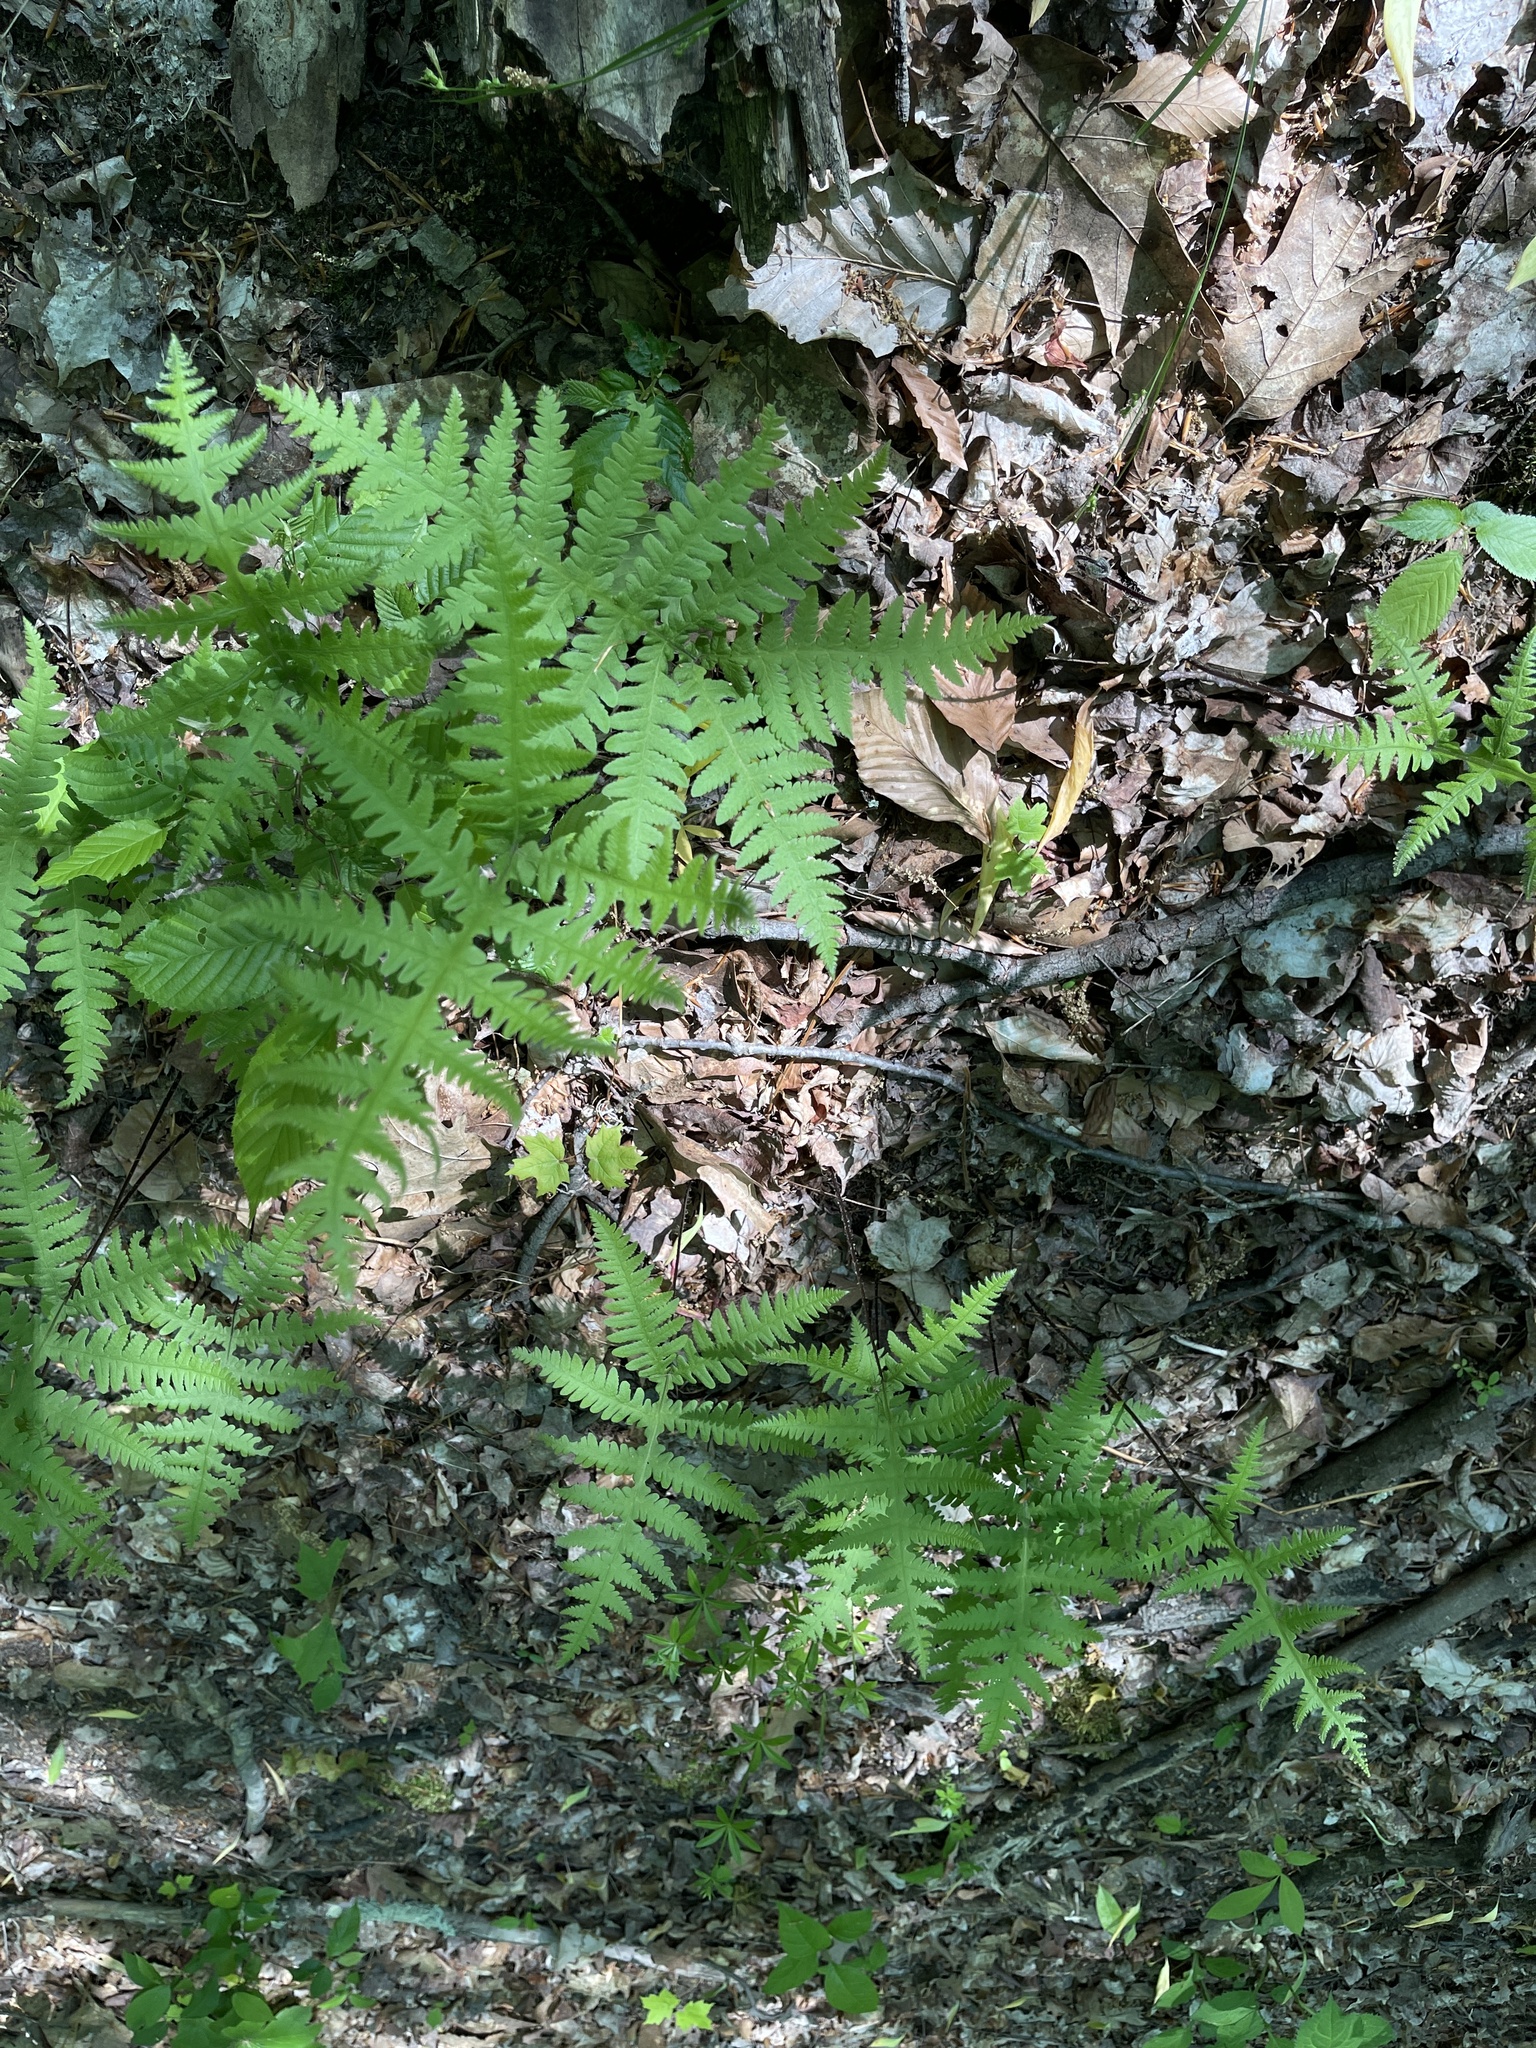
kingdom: Plantae
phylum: Tracheophyta
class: Polypodiopsida
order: Polypodiales
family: Thelypteridaceae
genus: Phegopteris
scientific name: Phegopteris hexagonoptera
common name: Broad beech fern
